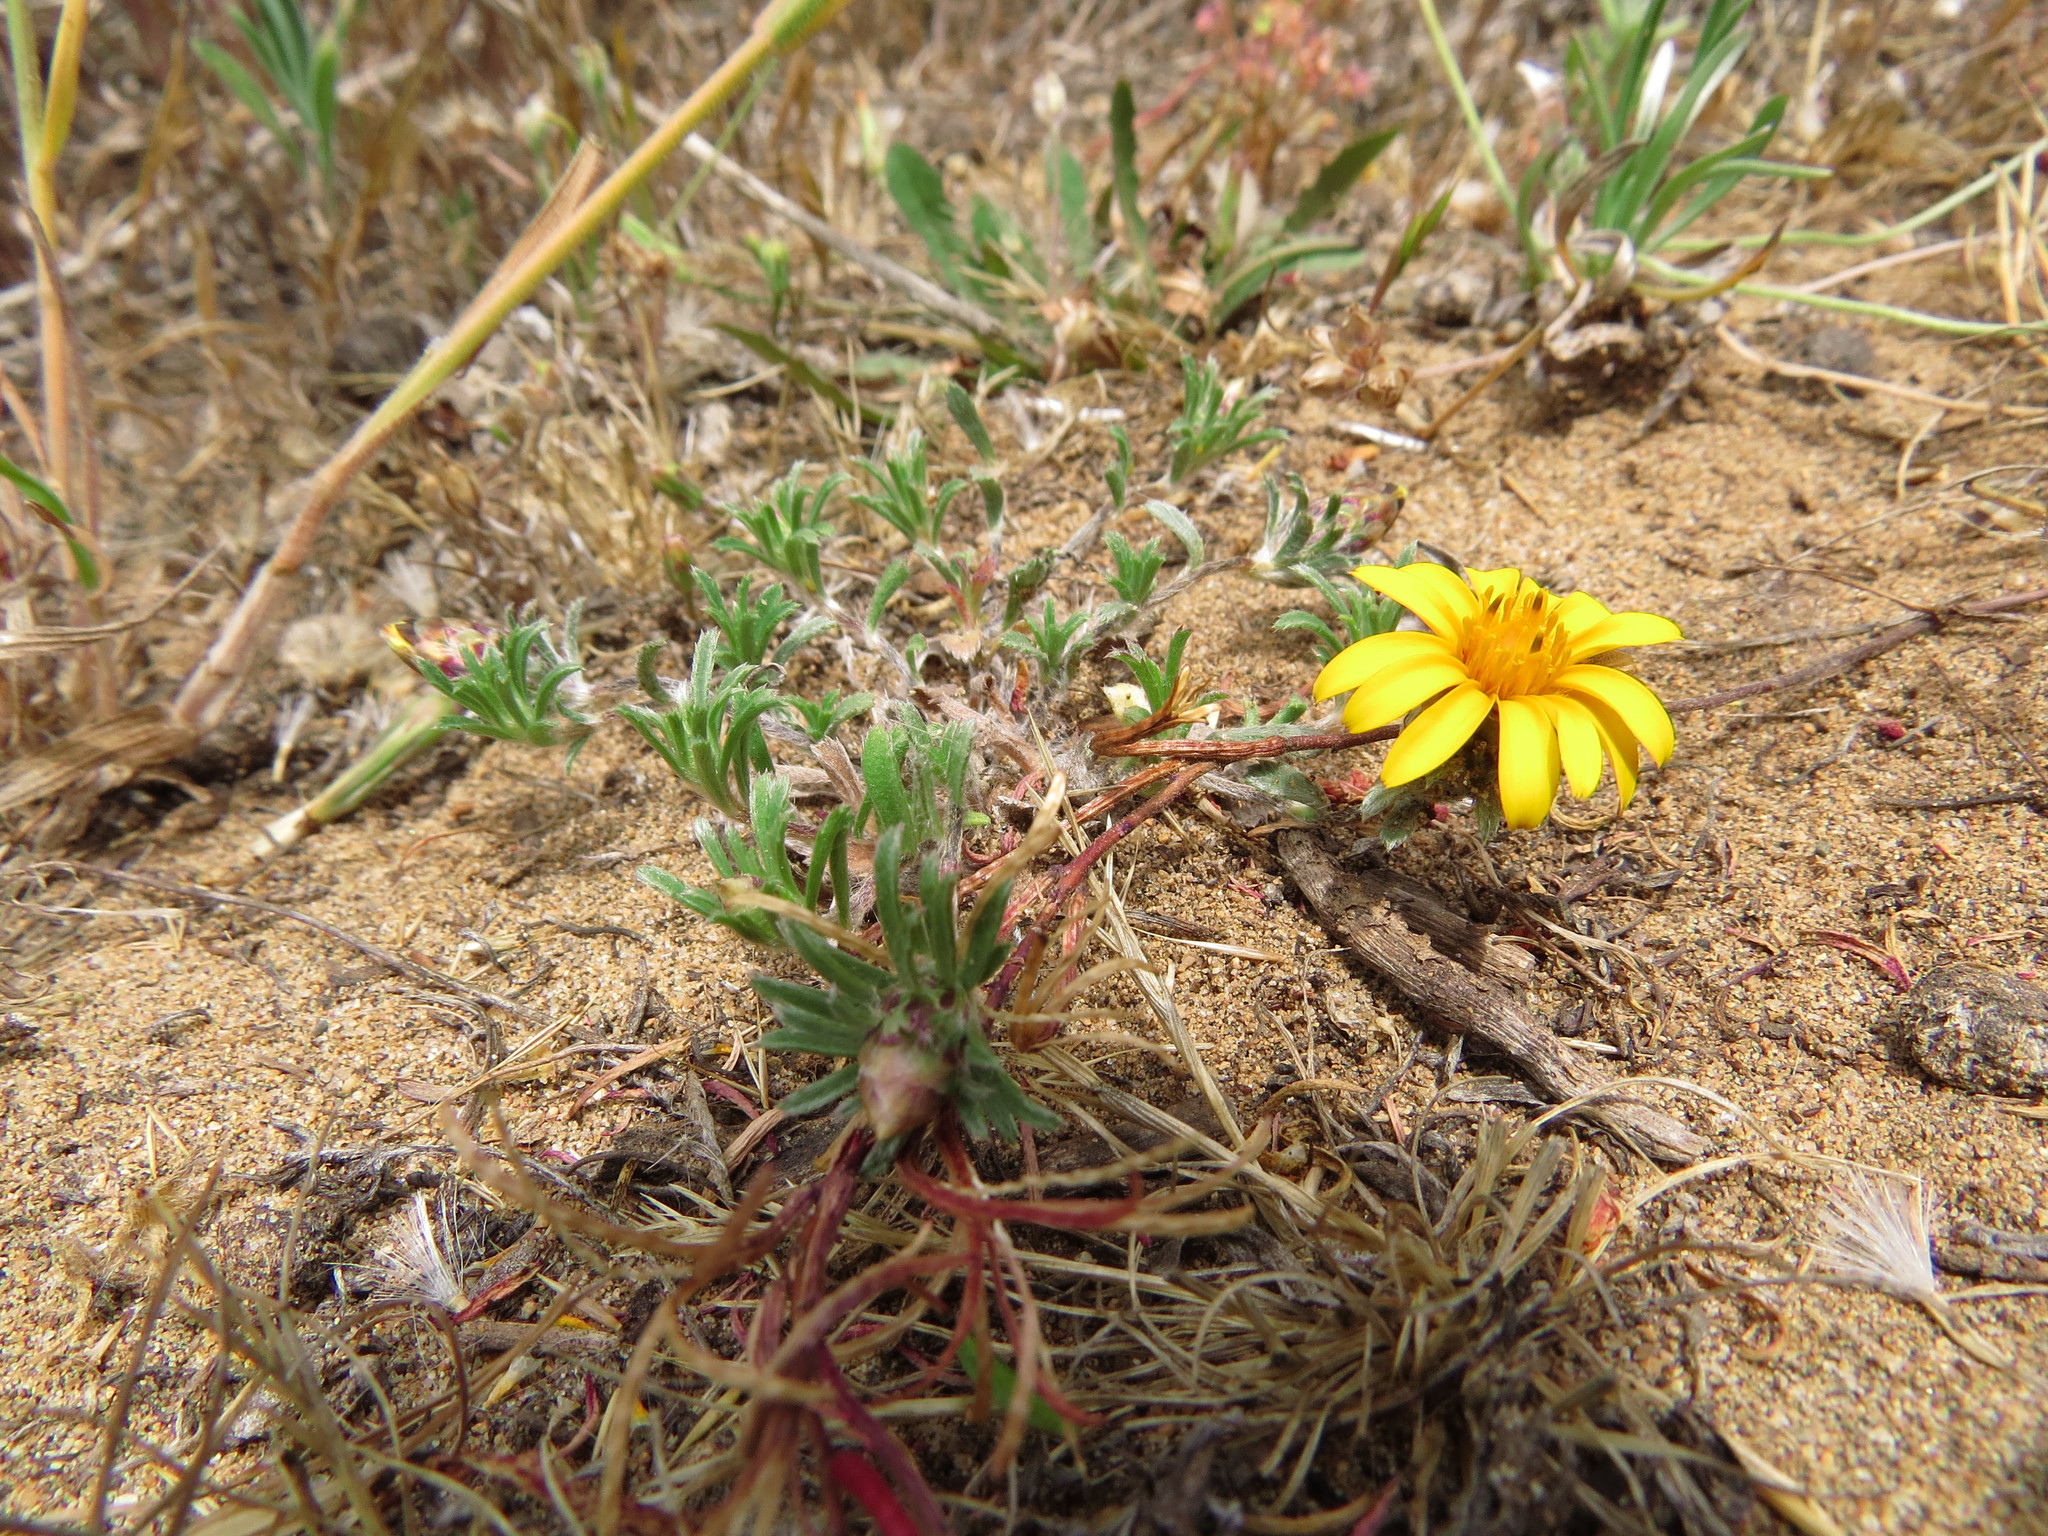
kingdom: Plantae
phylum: Tracheophyta
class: Magnoliopsida
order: Asterales
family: Asteraceae
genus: Chaetanthera
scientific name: Chaetanthera incana
